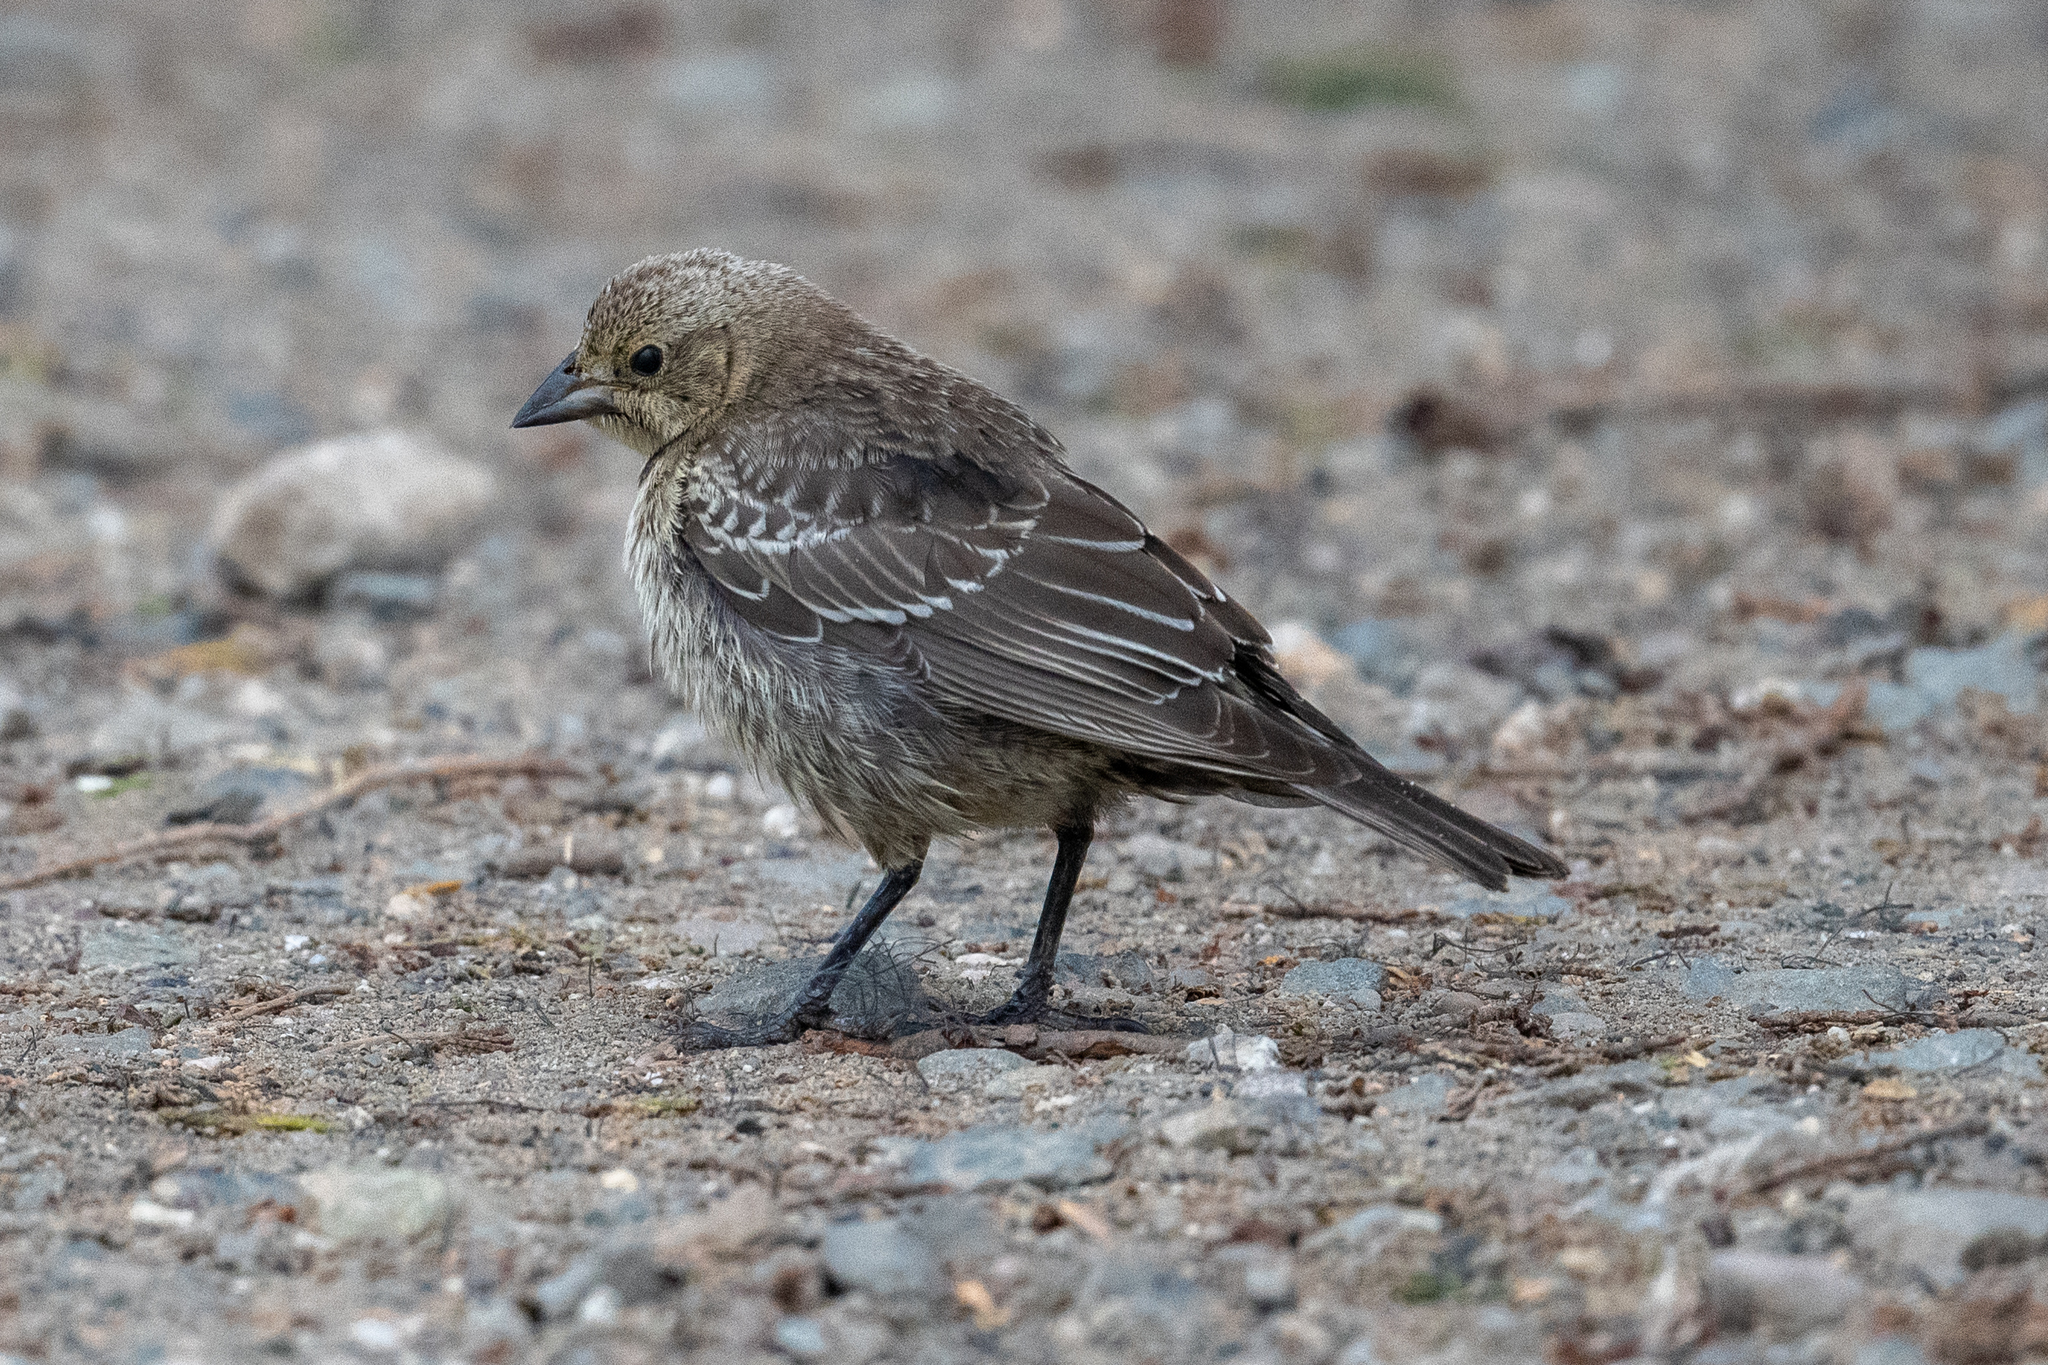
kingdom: Animalia
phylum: Chordata
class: Aves
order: Passeriformes
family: Icteridae
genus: Molothrus
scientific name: Molothrus ater
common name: Brown-headed cowbird
